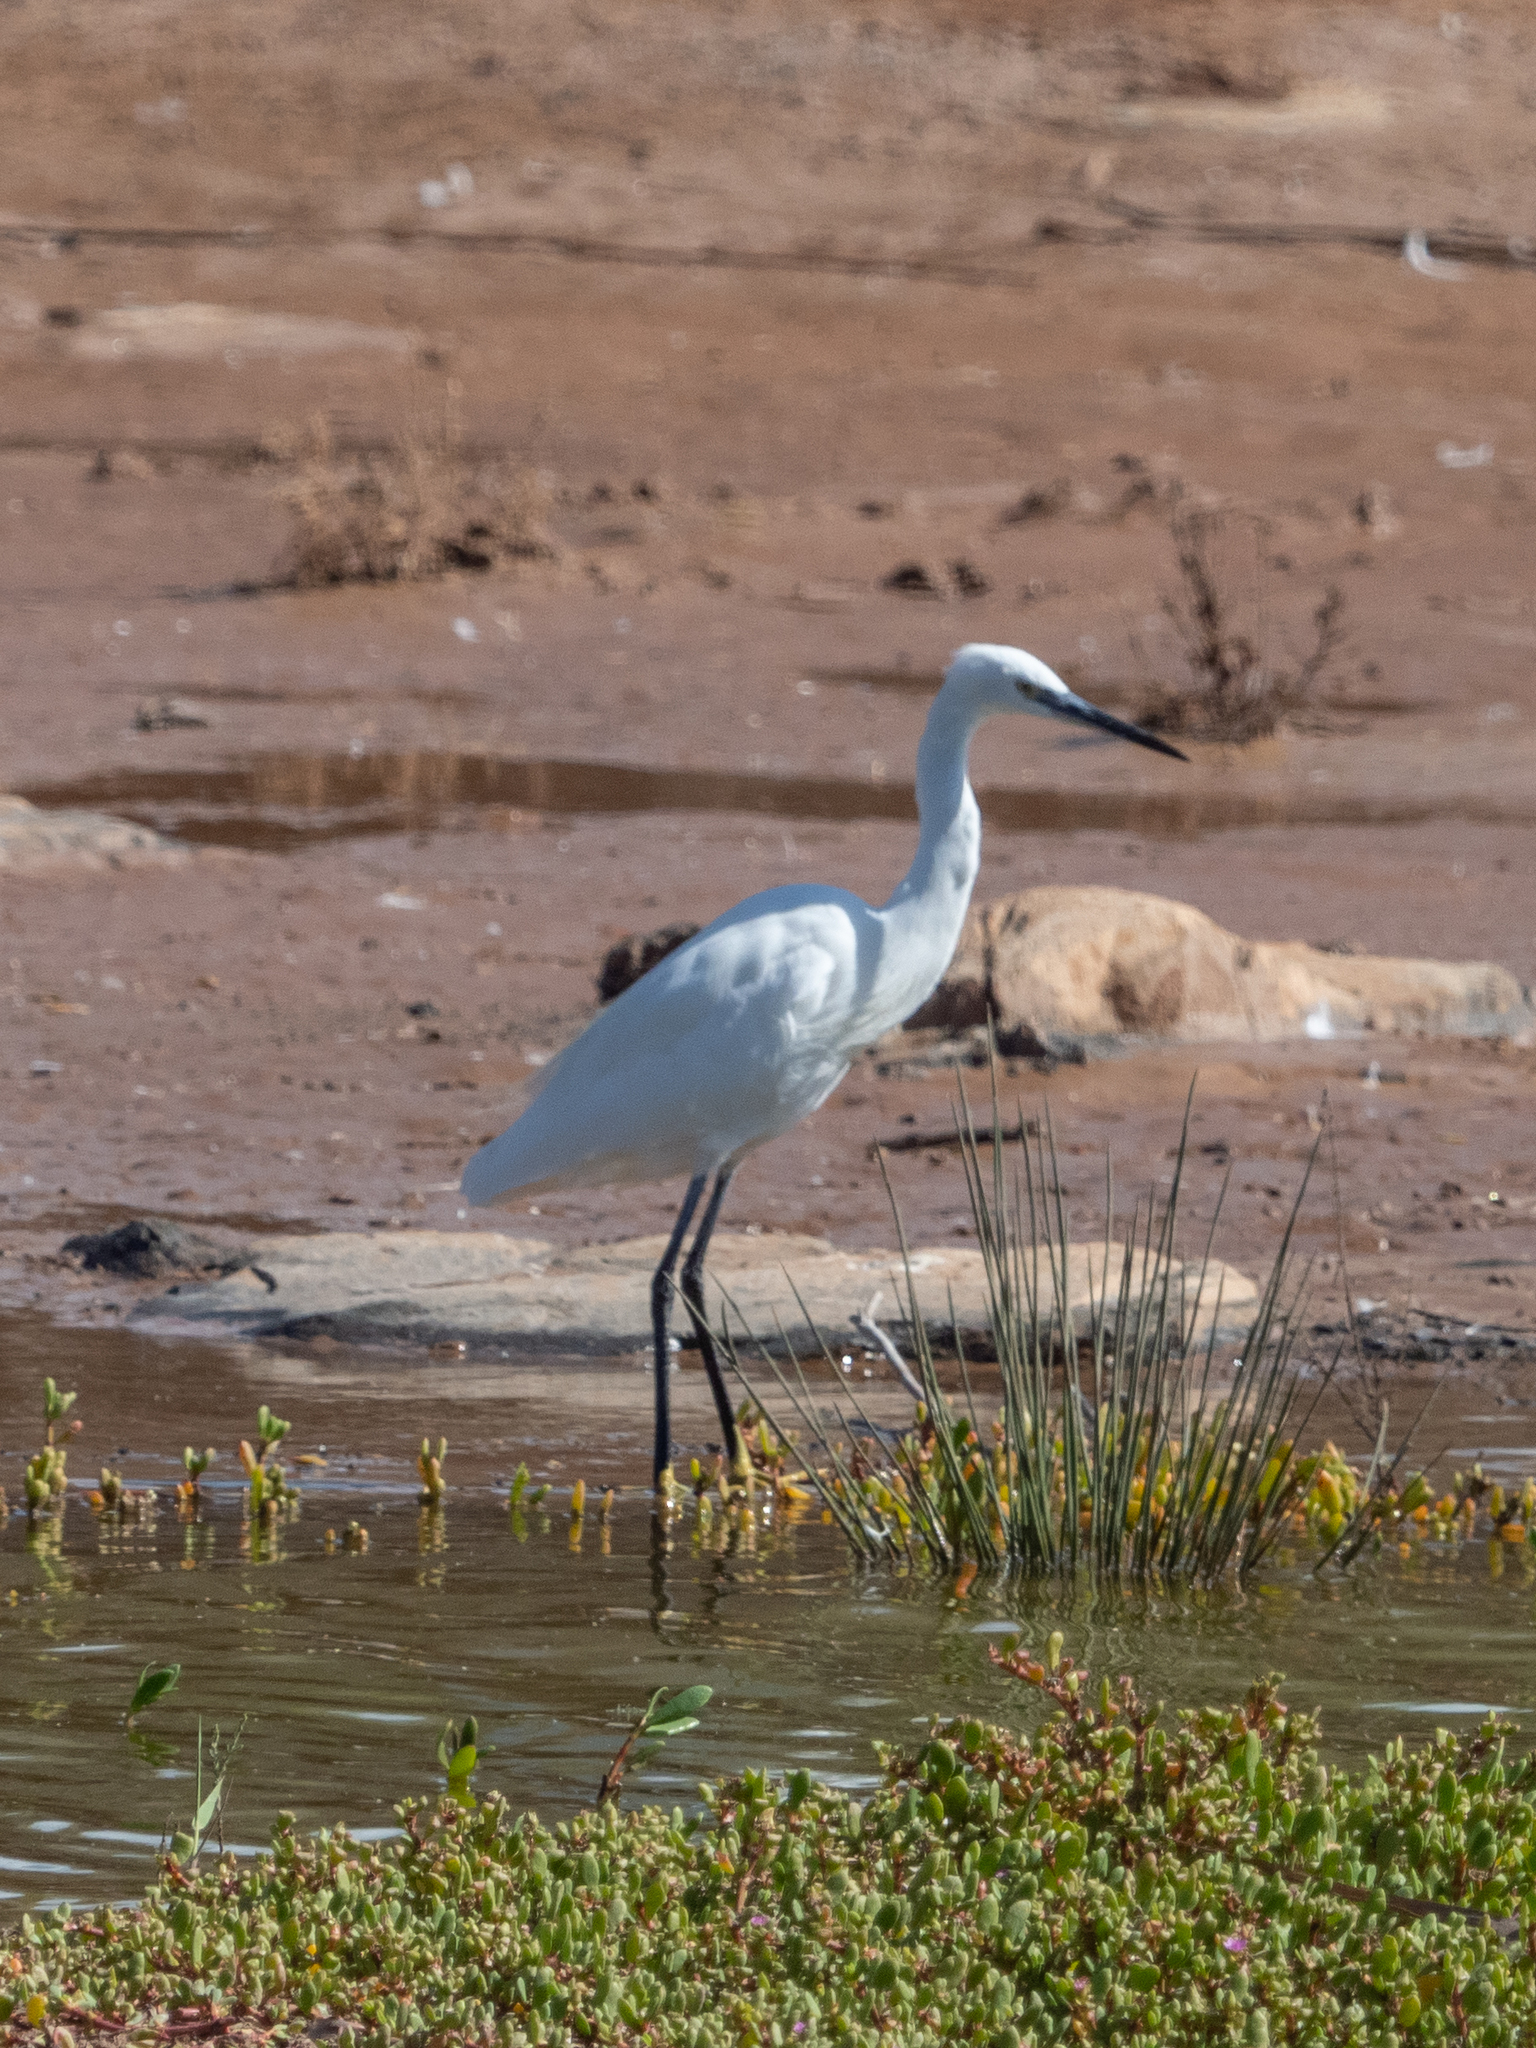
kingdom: Animalia
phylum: Chordata
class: Aves
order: Pelecaniformes
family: Ardeidae
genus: Egretta
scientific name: Egretta garzetta
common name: Little egret
